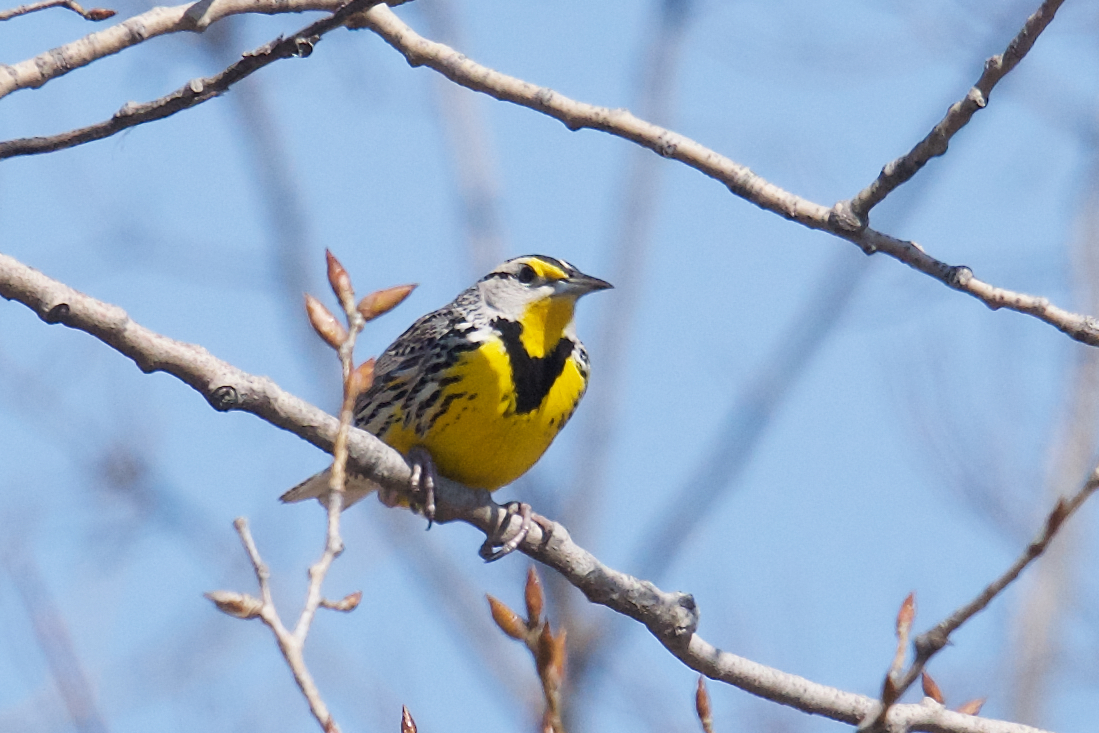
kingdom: Animalia
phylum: Chordata
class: Aves
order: Passeriformes
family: Icteridae
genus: Sturnella
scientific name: Sturnella magna
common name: Eastern meadowlark
